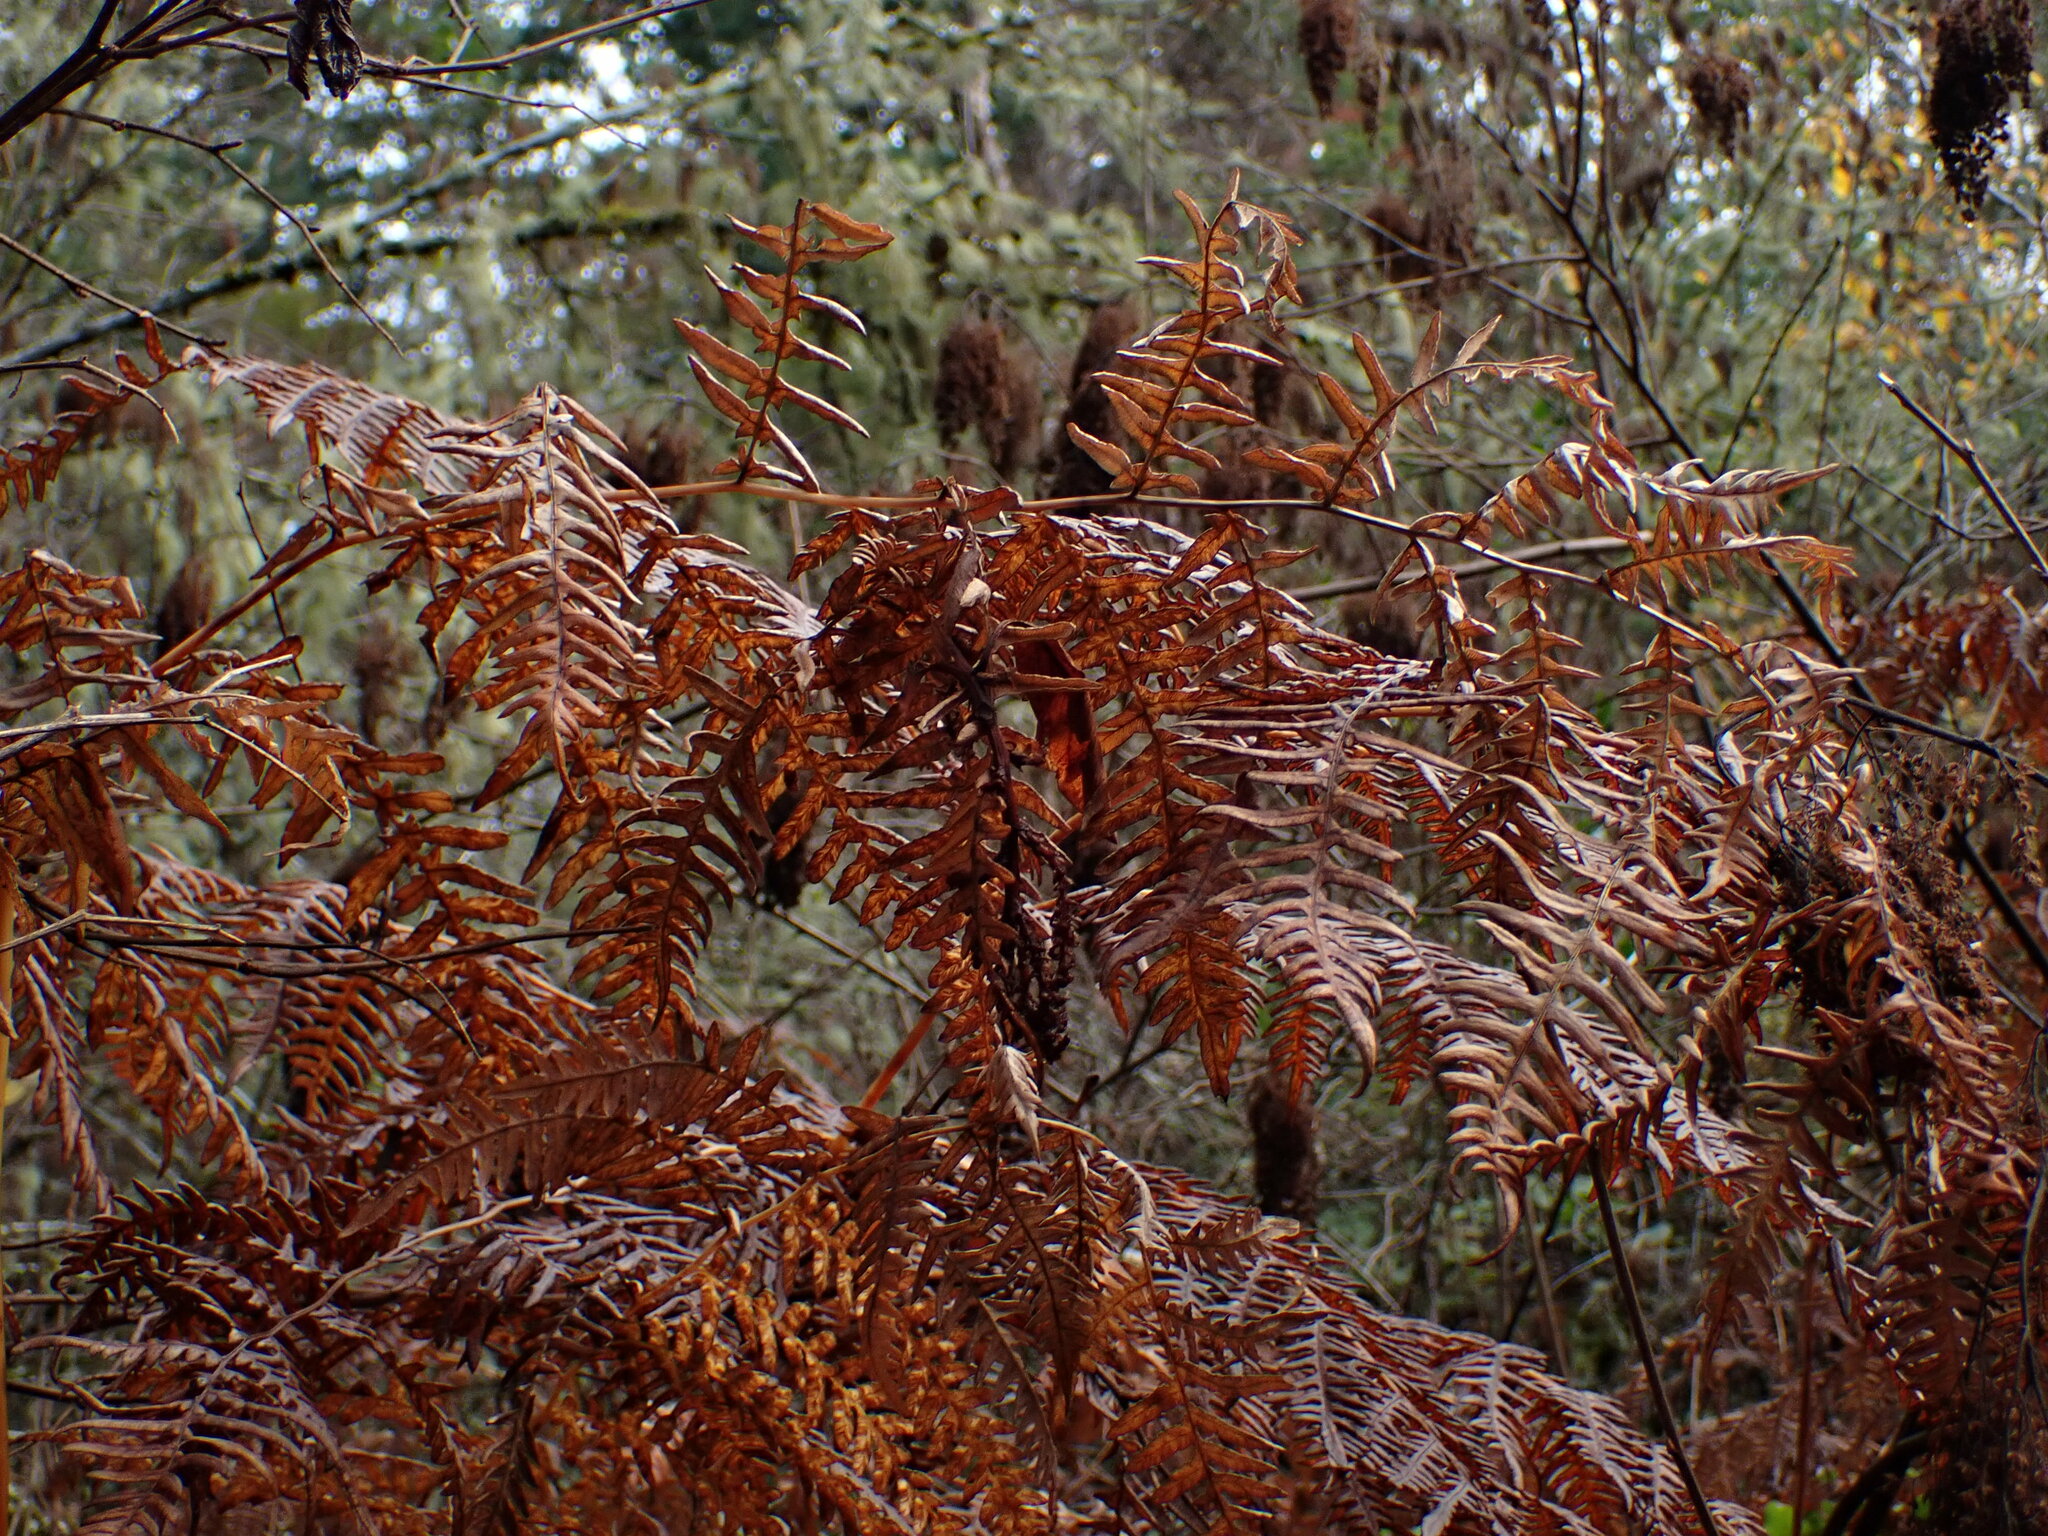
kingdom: Plantae
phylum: Tracheophyta
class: Polypodiopsida
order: Polypodiales
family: Dennstaedtiaceae
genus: Pteridium
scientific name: Pteridium aquilinum
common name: Bracken
